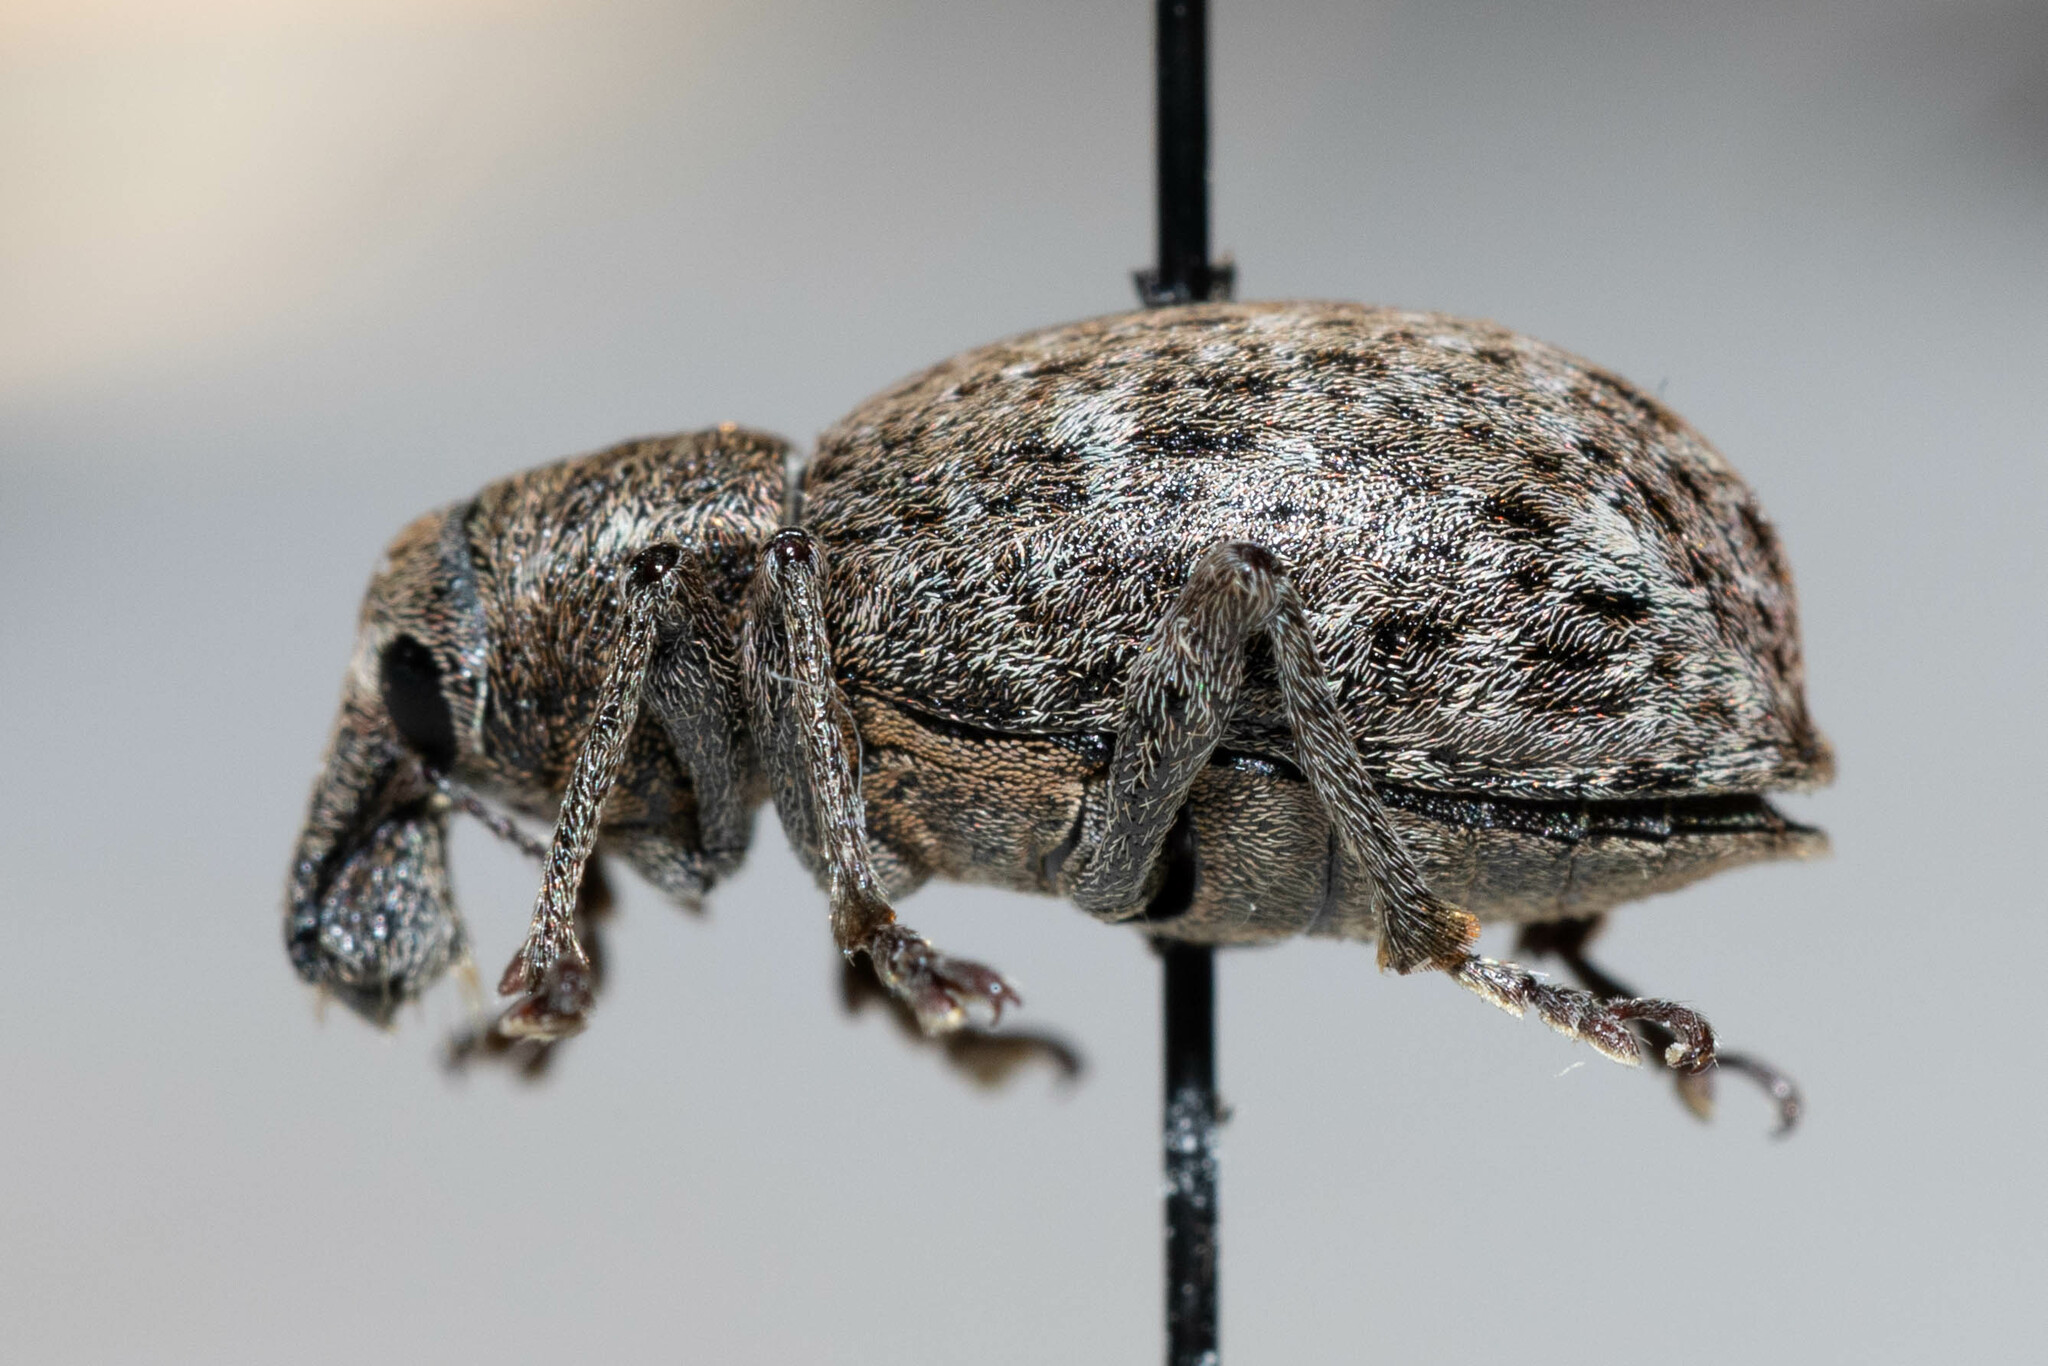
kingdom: Animalia
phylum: Arthropoda
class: Insecta
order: Coleoptera
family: Curculionidae
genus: Trichalophus
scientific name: Trichalophus alternatus
